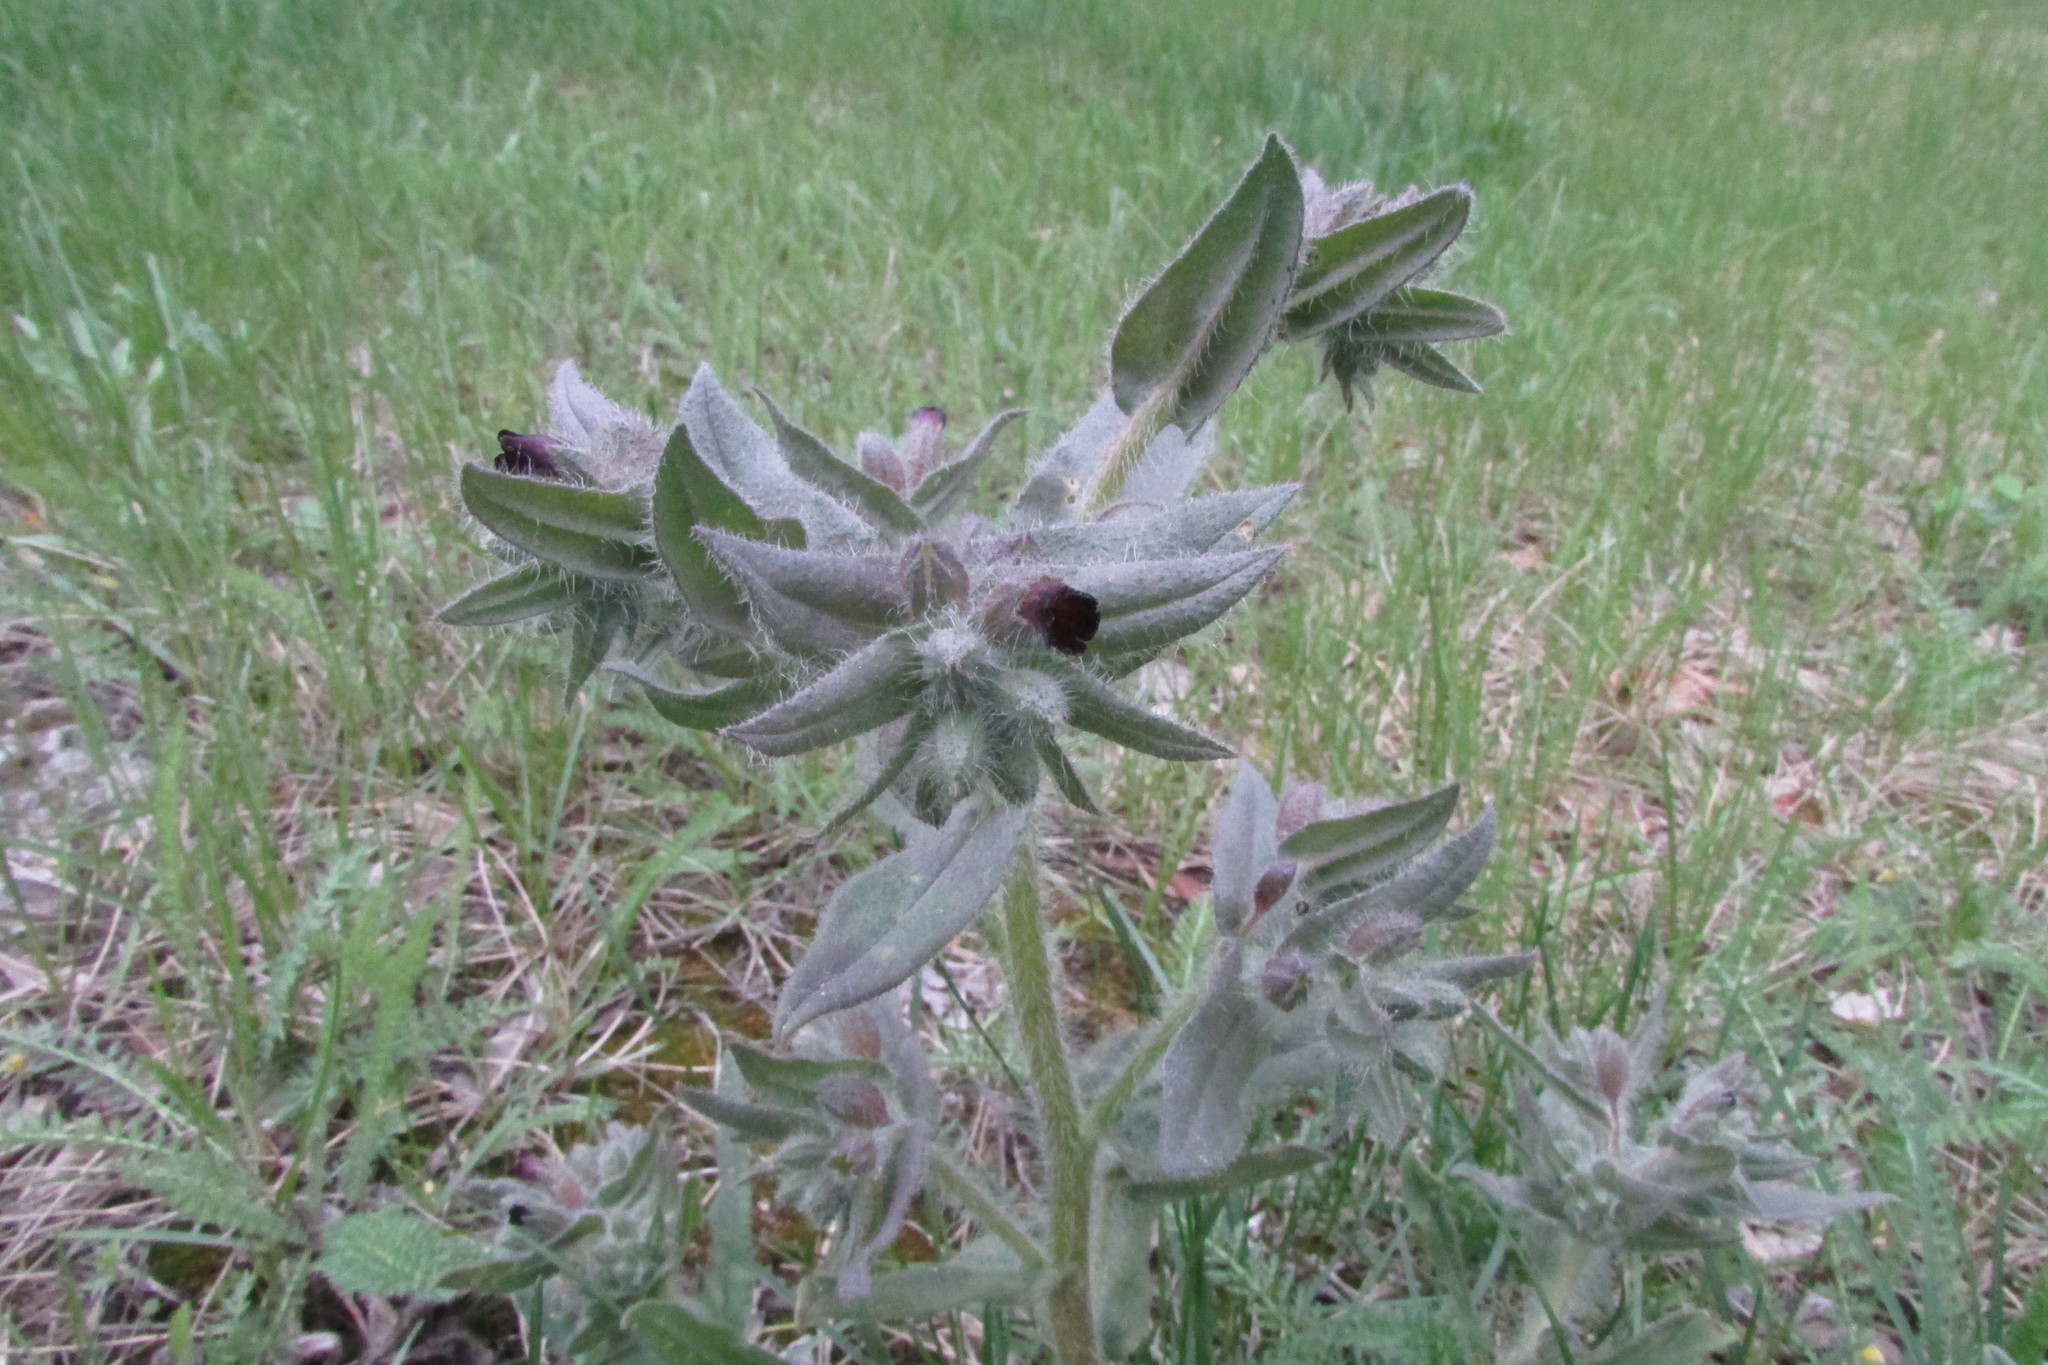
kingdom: Plantae
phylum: Tracheophyta
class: Magnoliopsida
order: Boraginales
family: Boraginaceae
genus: Nonea
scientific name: Nonea pulla
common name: Brown nonea
